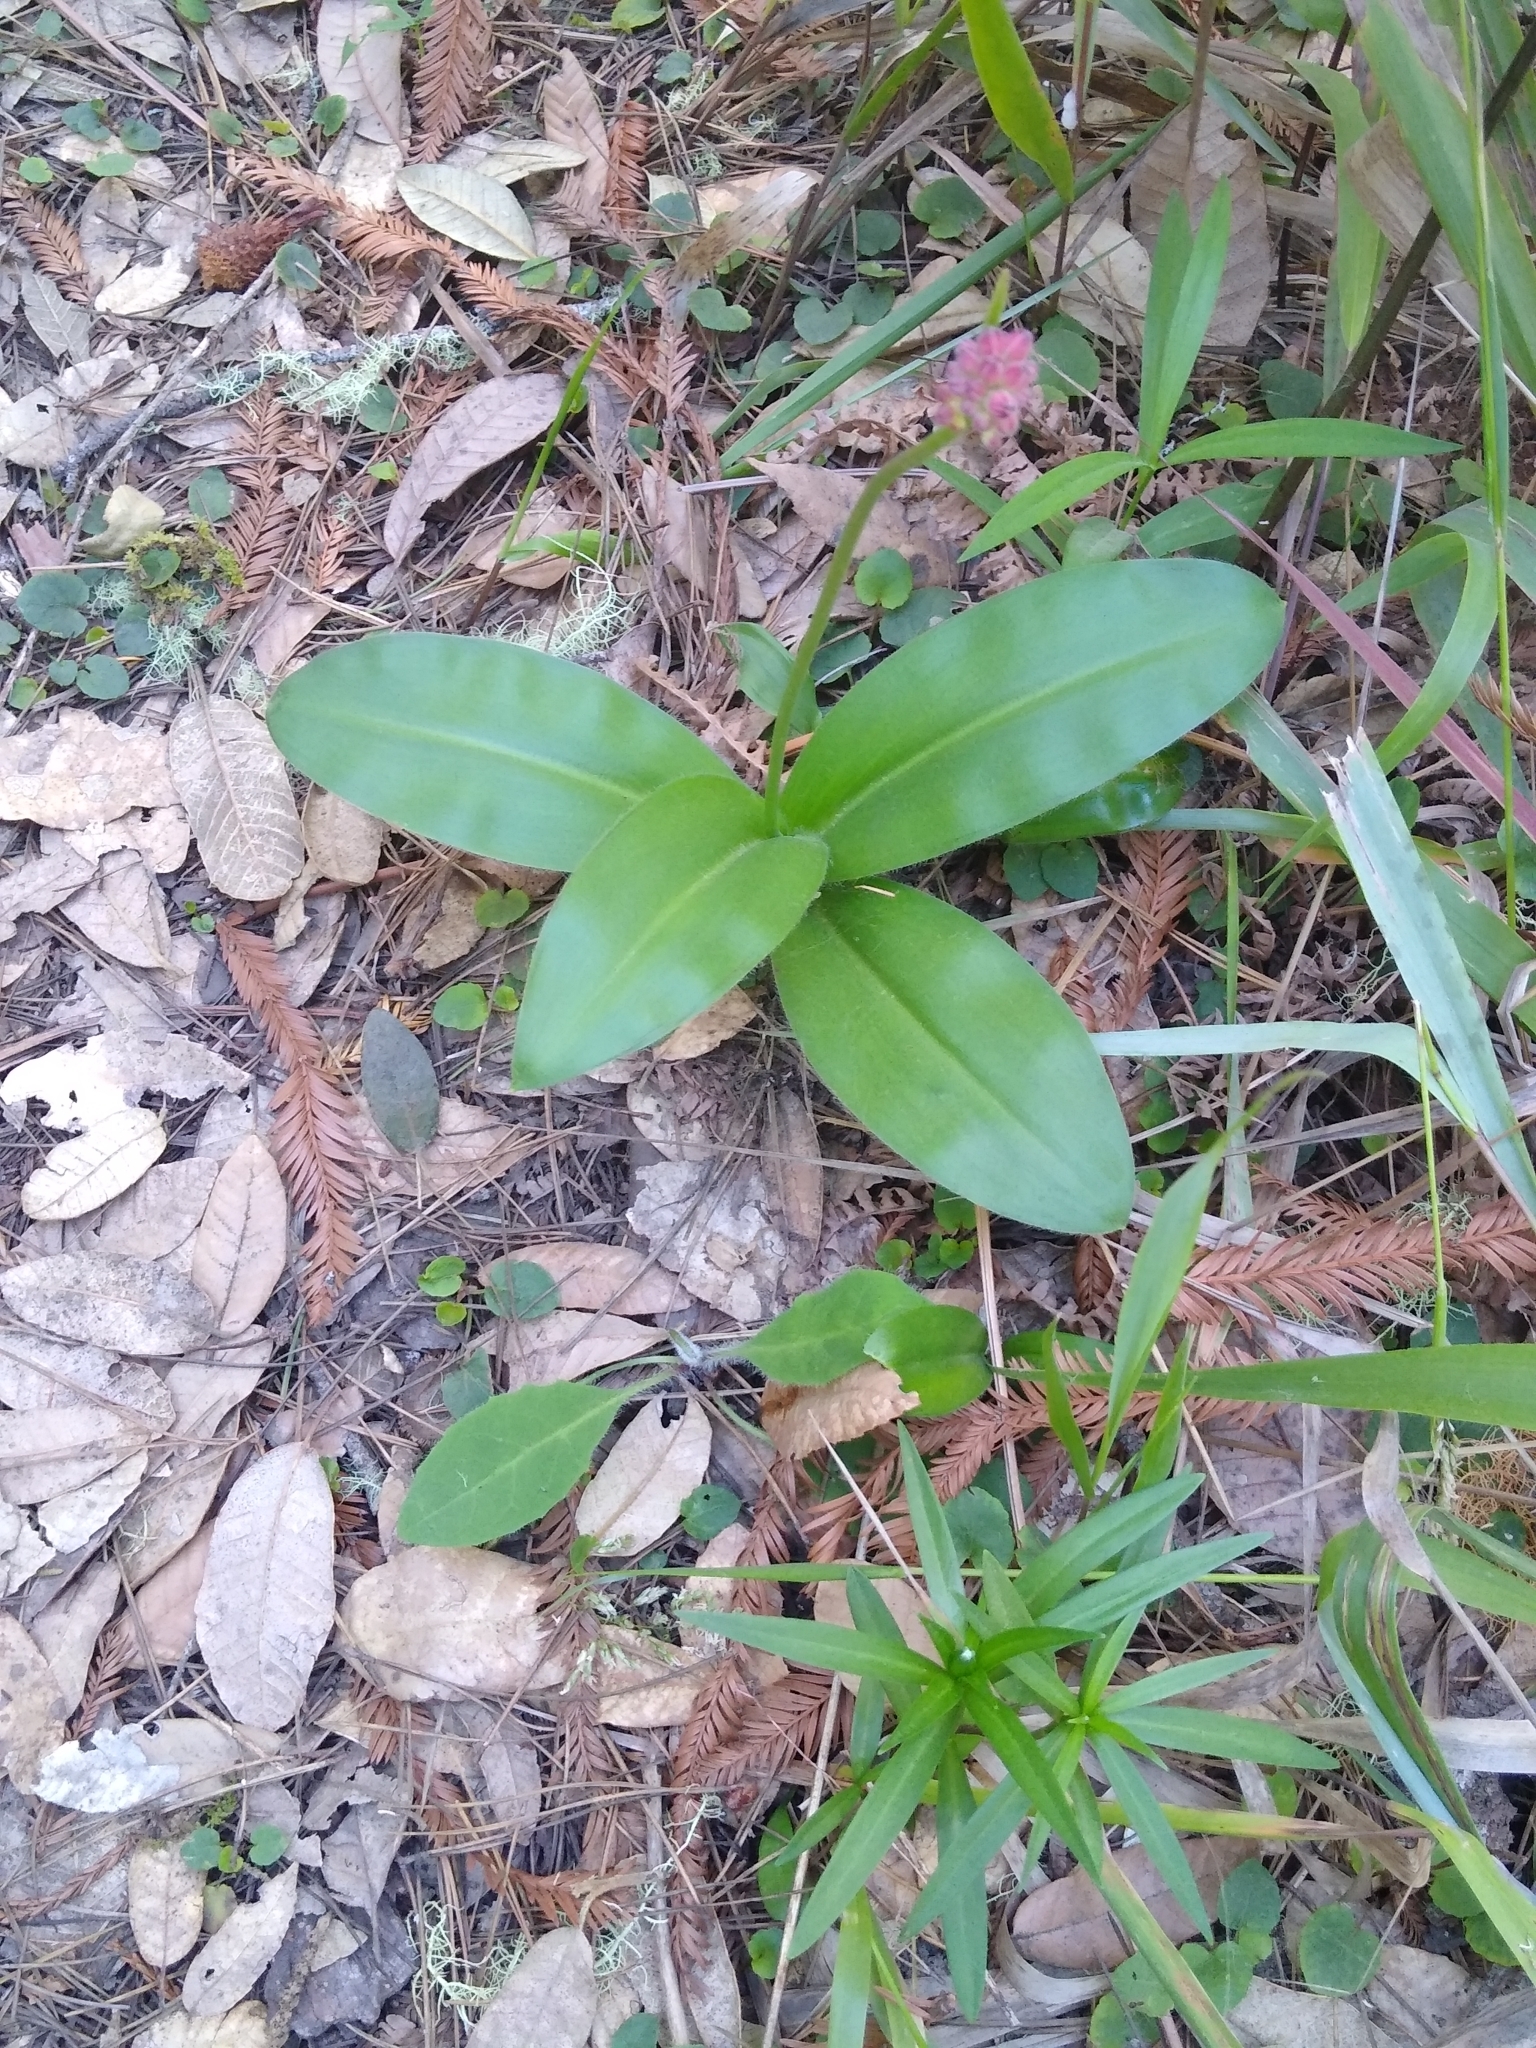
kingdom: Plantae
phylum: Tracheophyta
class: Liliopsida
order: Liliales
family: Liliaceae
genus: Clintonia
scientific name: Clintonia andrewsiana
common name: Red clintonia
